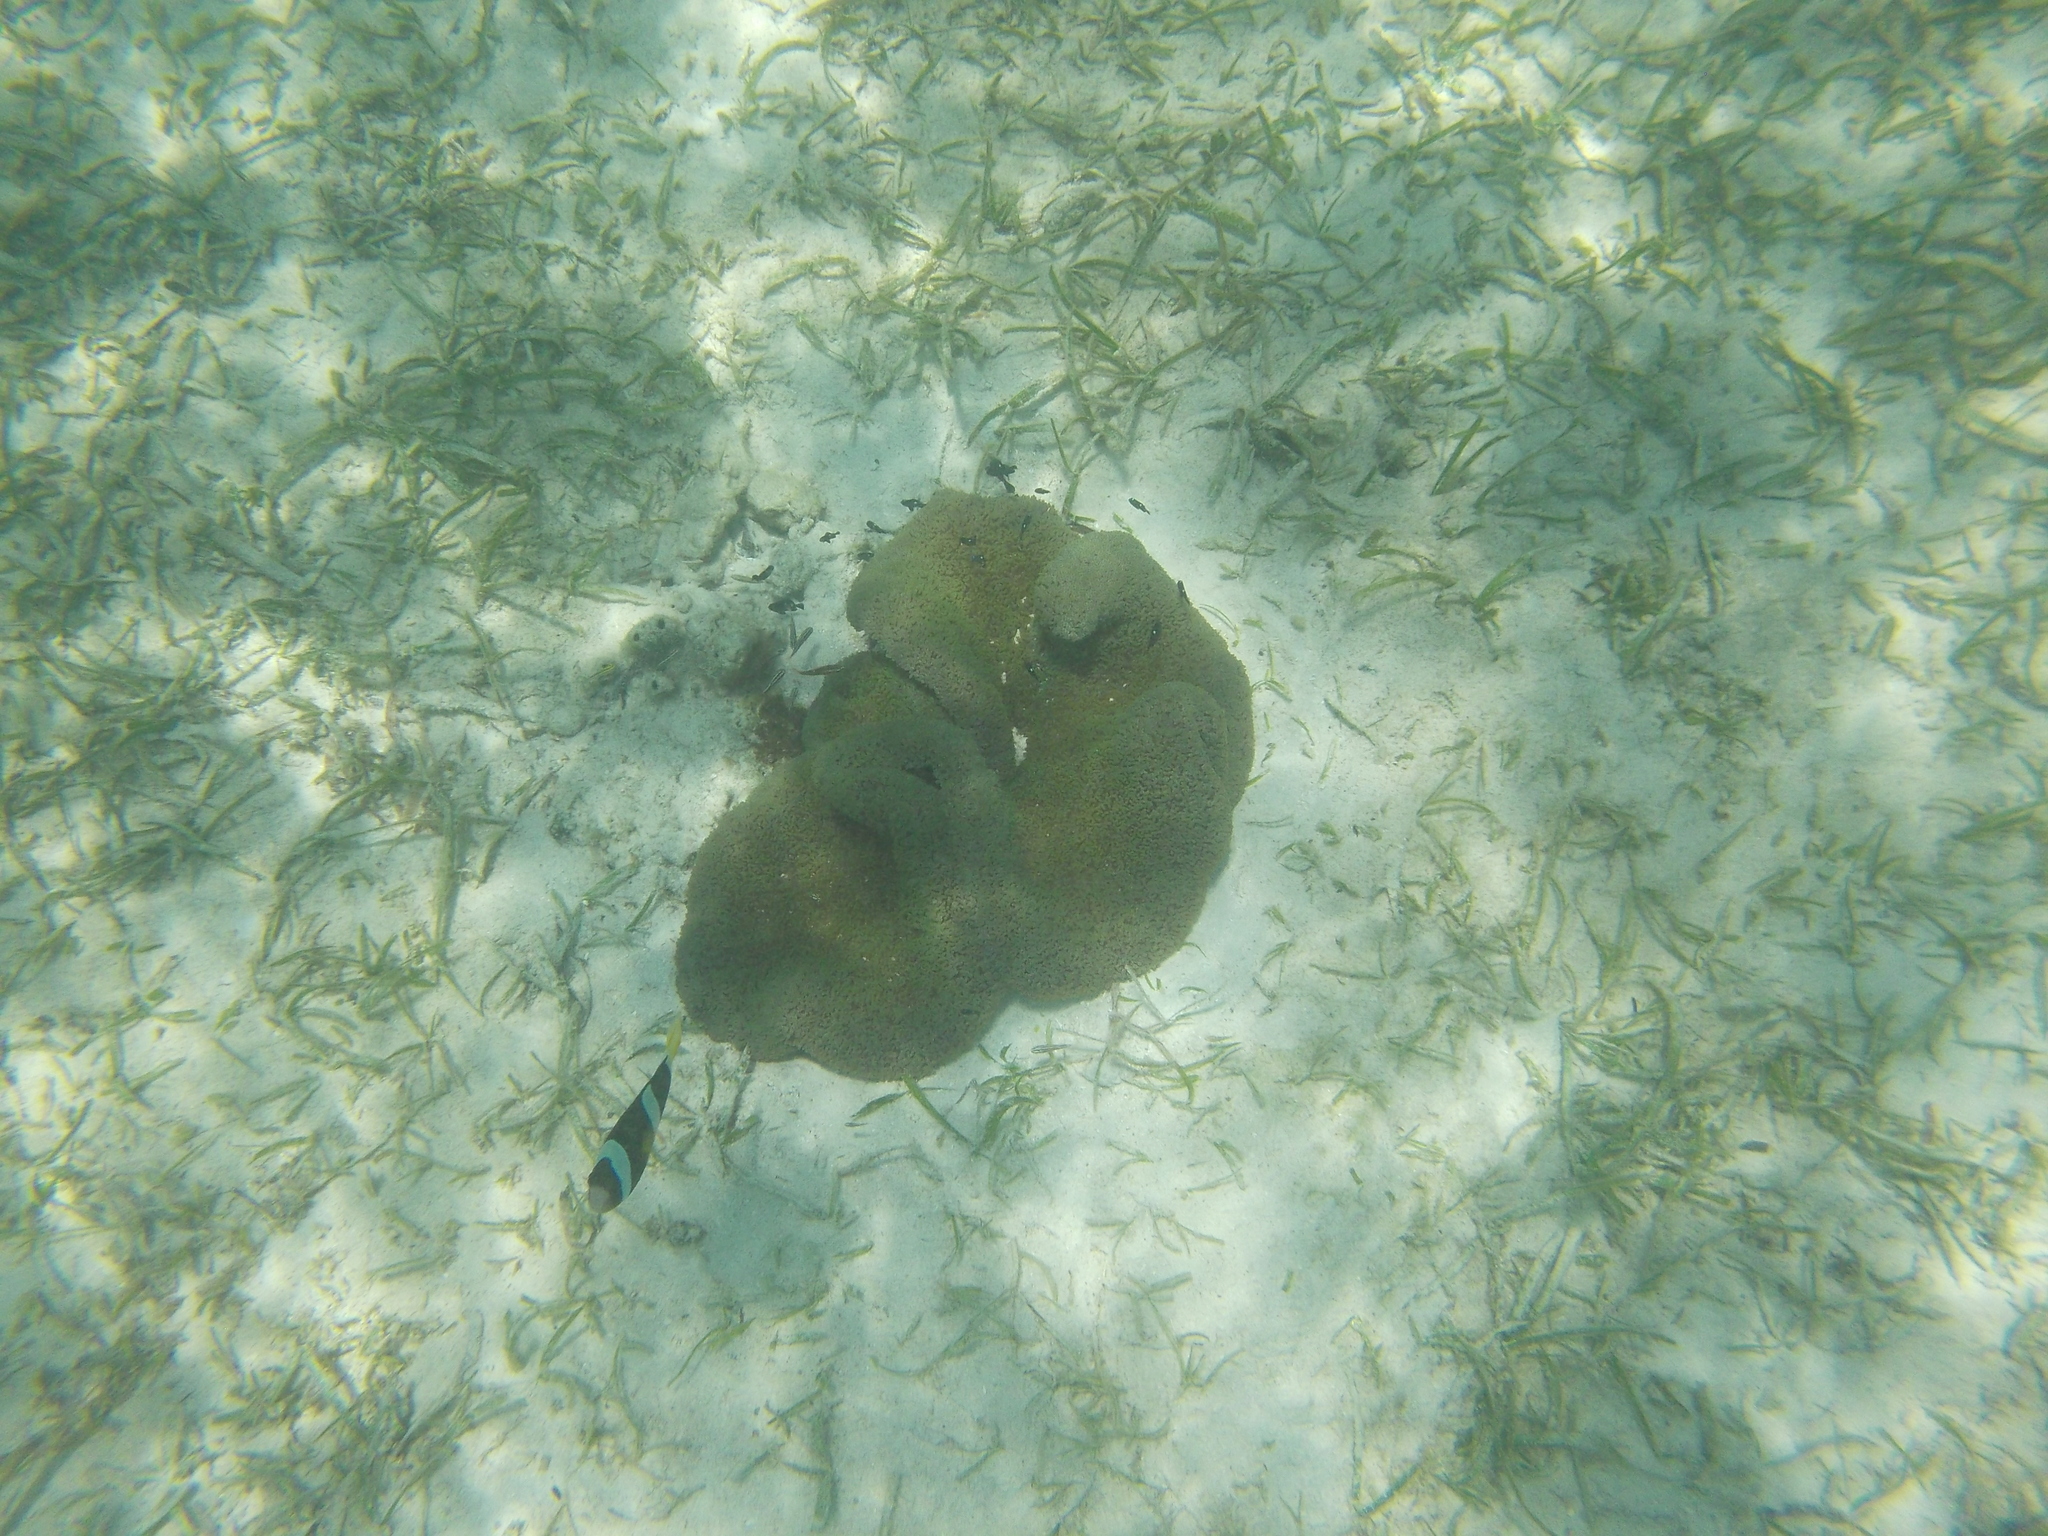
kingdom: Animalia
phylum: Cnidaria
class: Anthozoa
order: Actiniaria
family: Stichodactylidae
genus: Stichodactyla
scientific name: Stichodactyla haddoni
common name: Haddon's sea anemone
